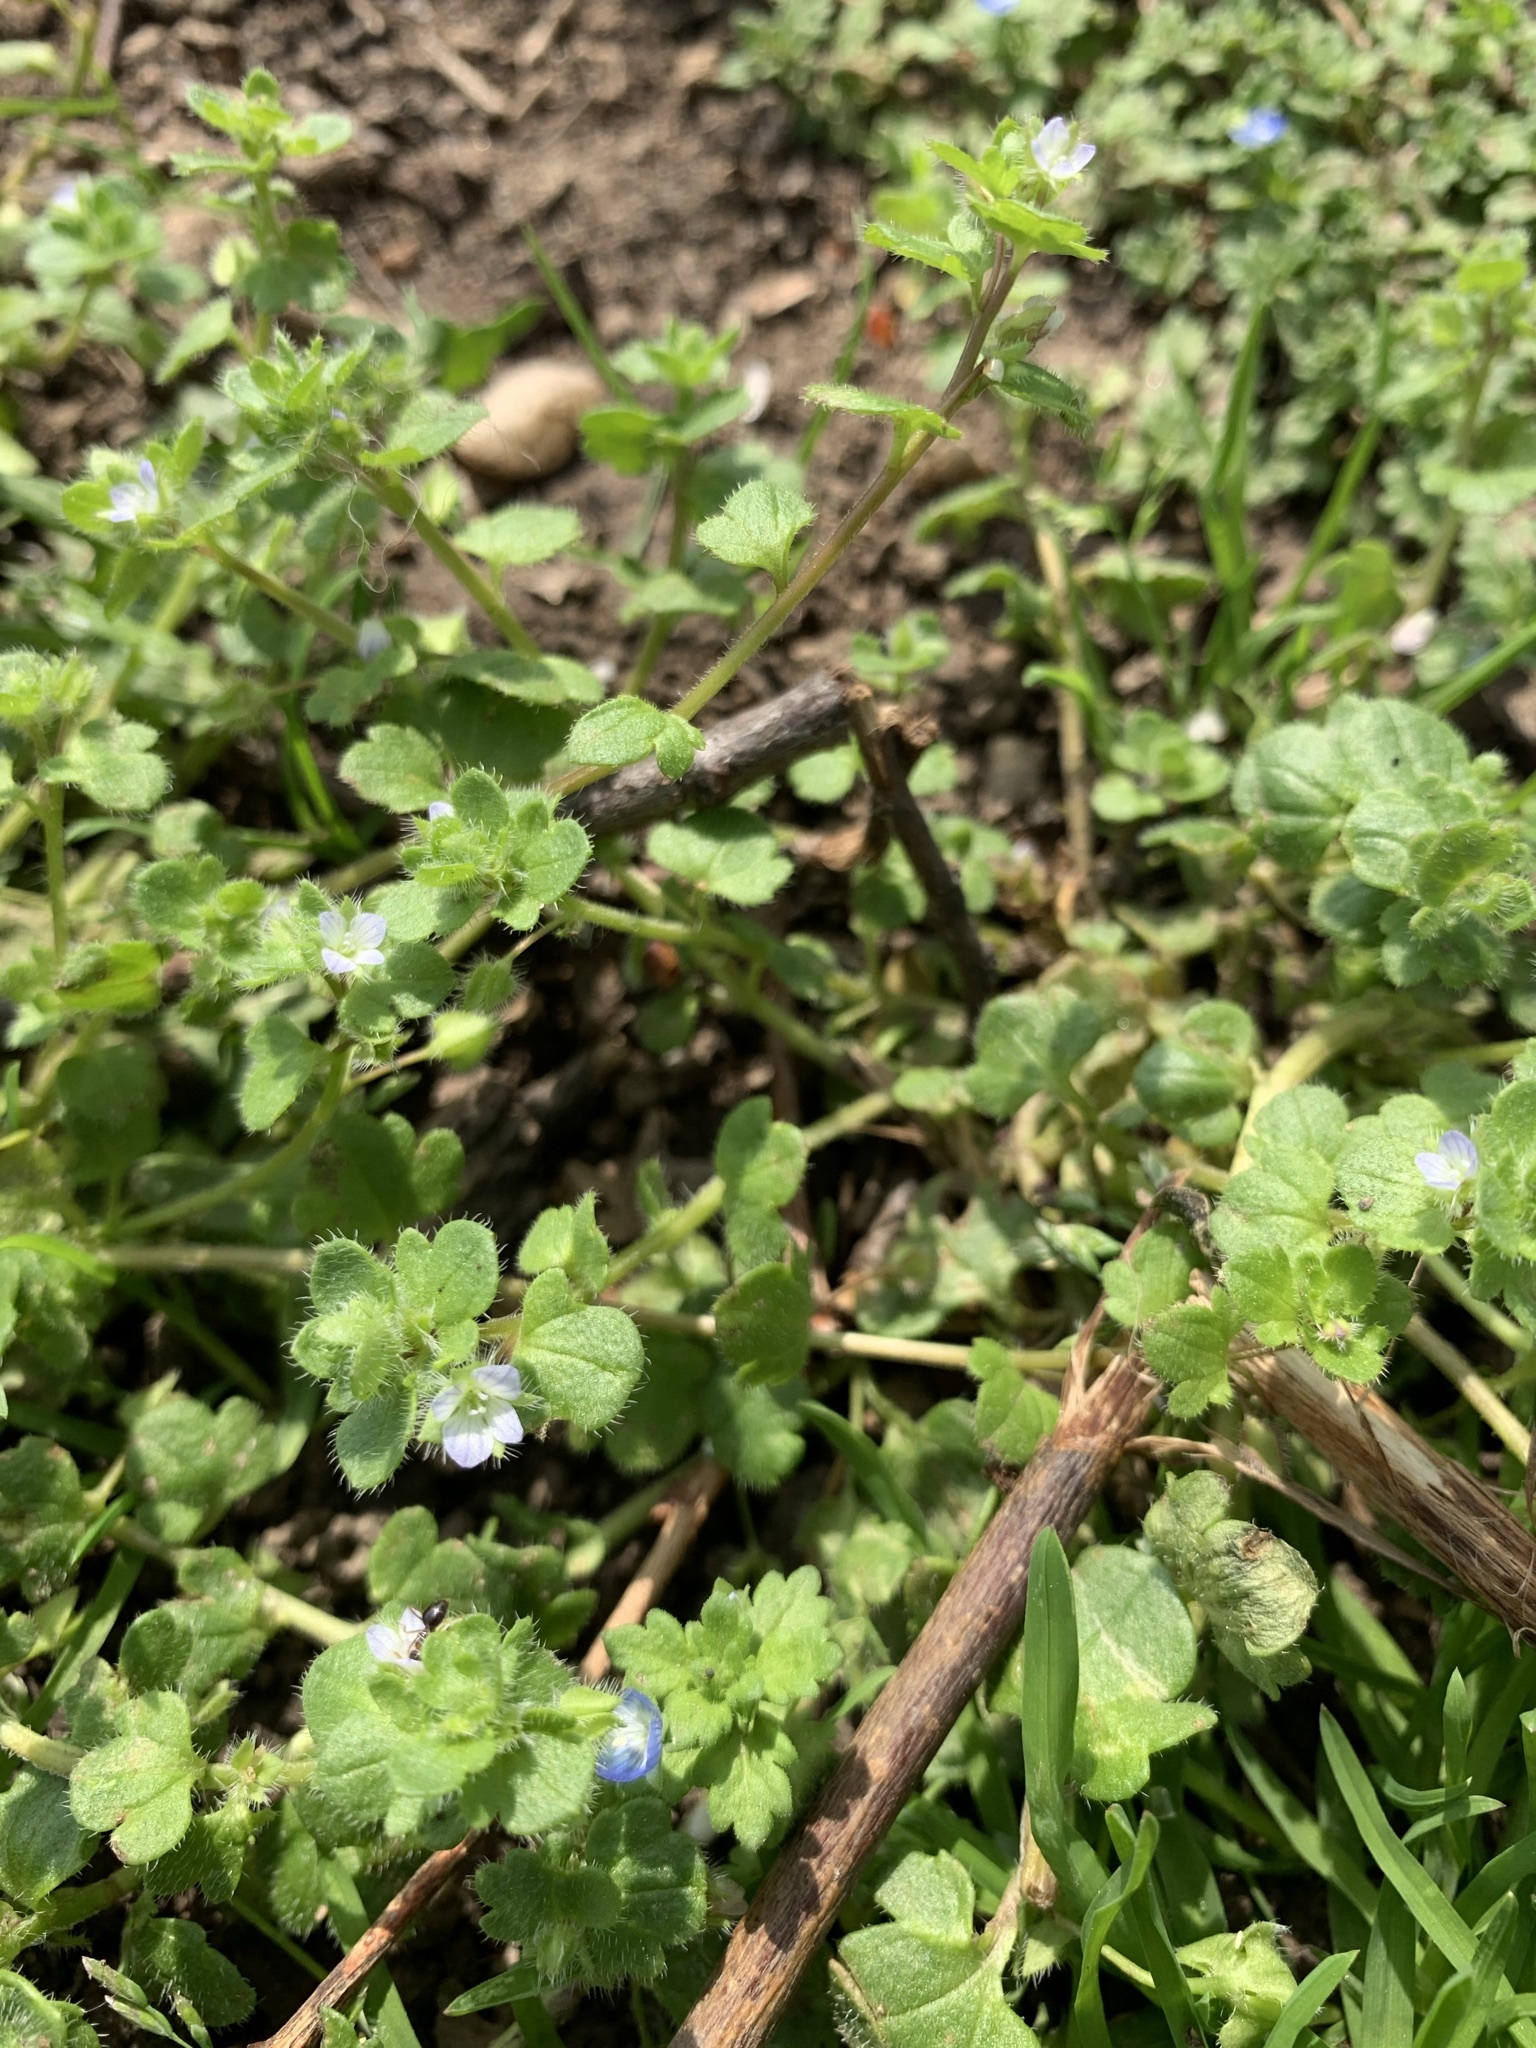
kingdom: Plantae
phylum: Tracheophyta
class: Magnoliopsida
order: Lamiales
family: Plantaginaceae
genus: Veronica
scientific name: Veronica hederifolia
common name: Ivy-leaved speedwell
